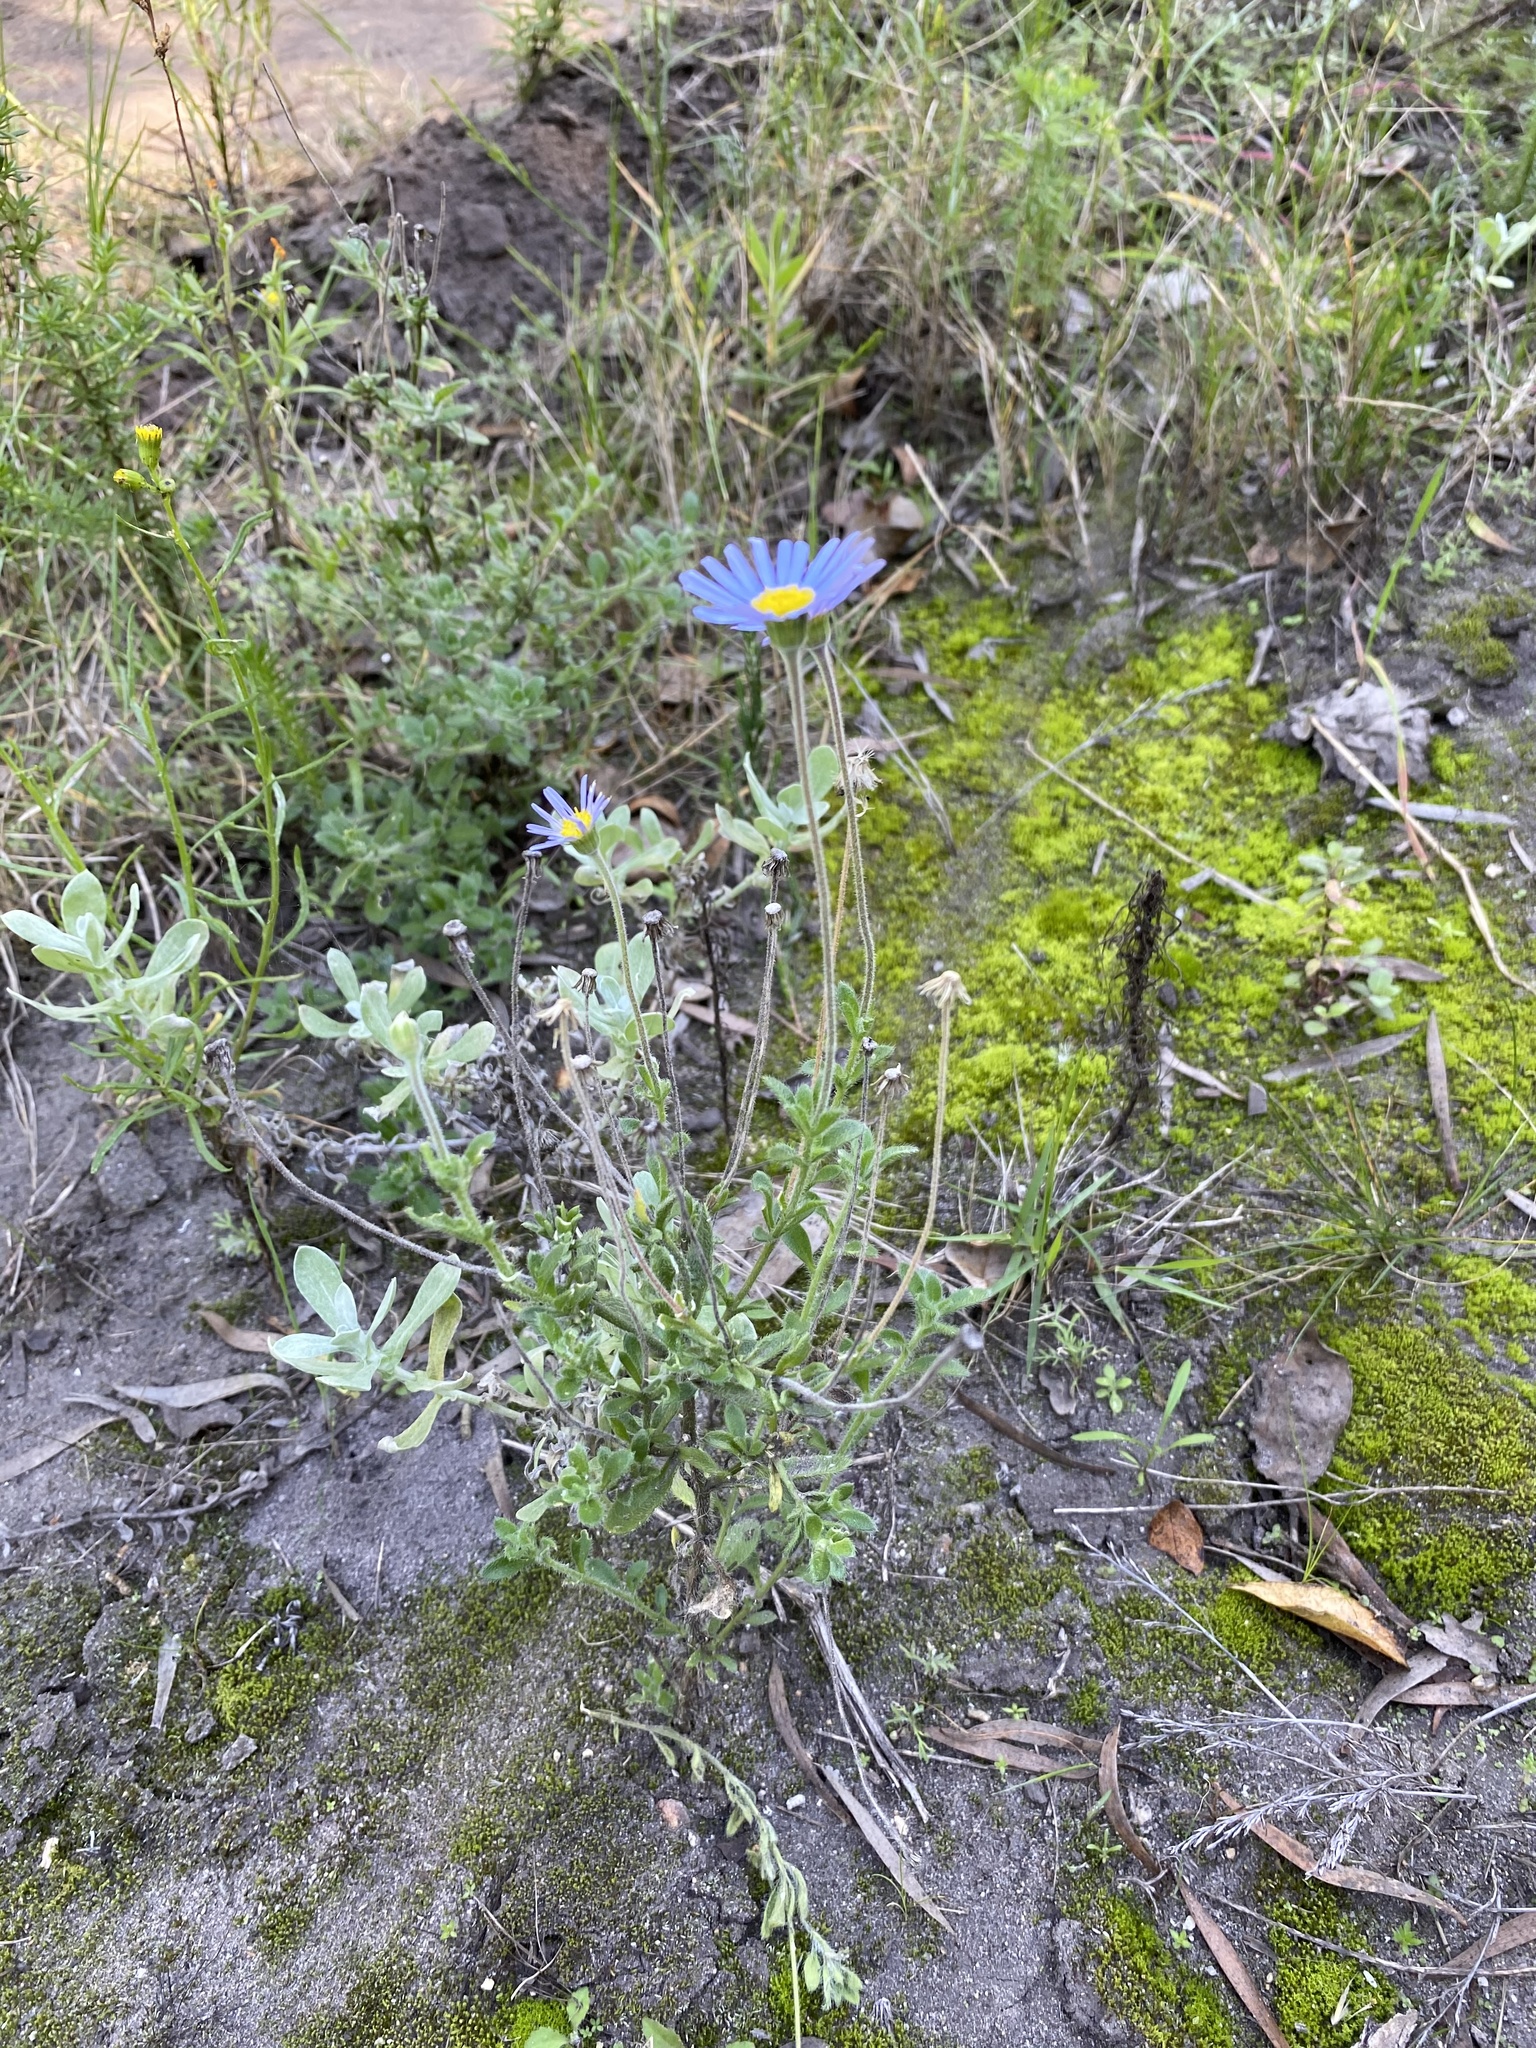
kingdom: Plantae
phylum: Tracheophyta
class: Magnoliopsida
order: Asterales
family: Asteraceae
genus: Felicia
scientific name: Felicia amoena
